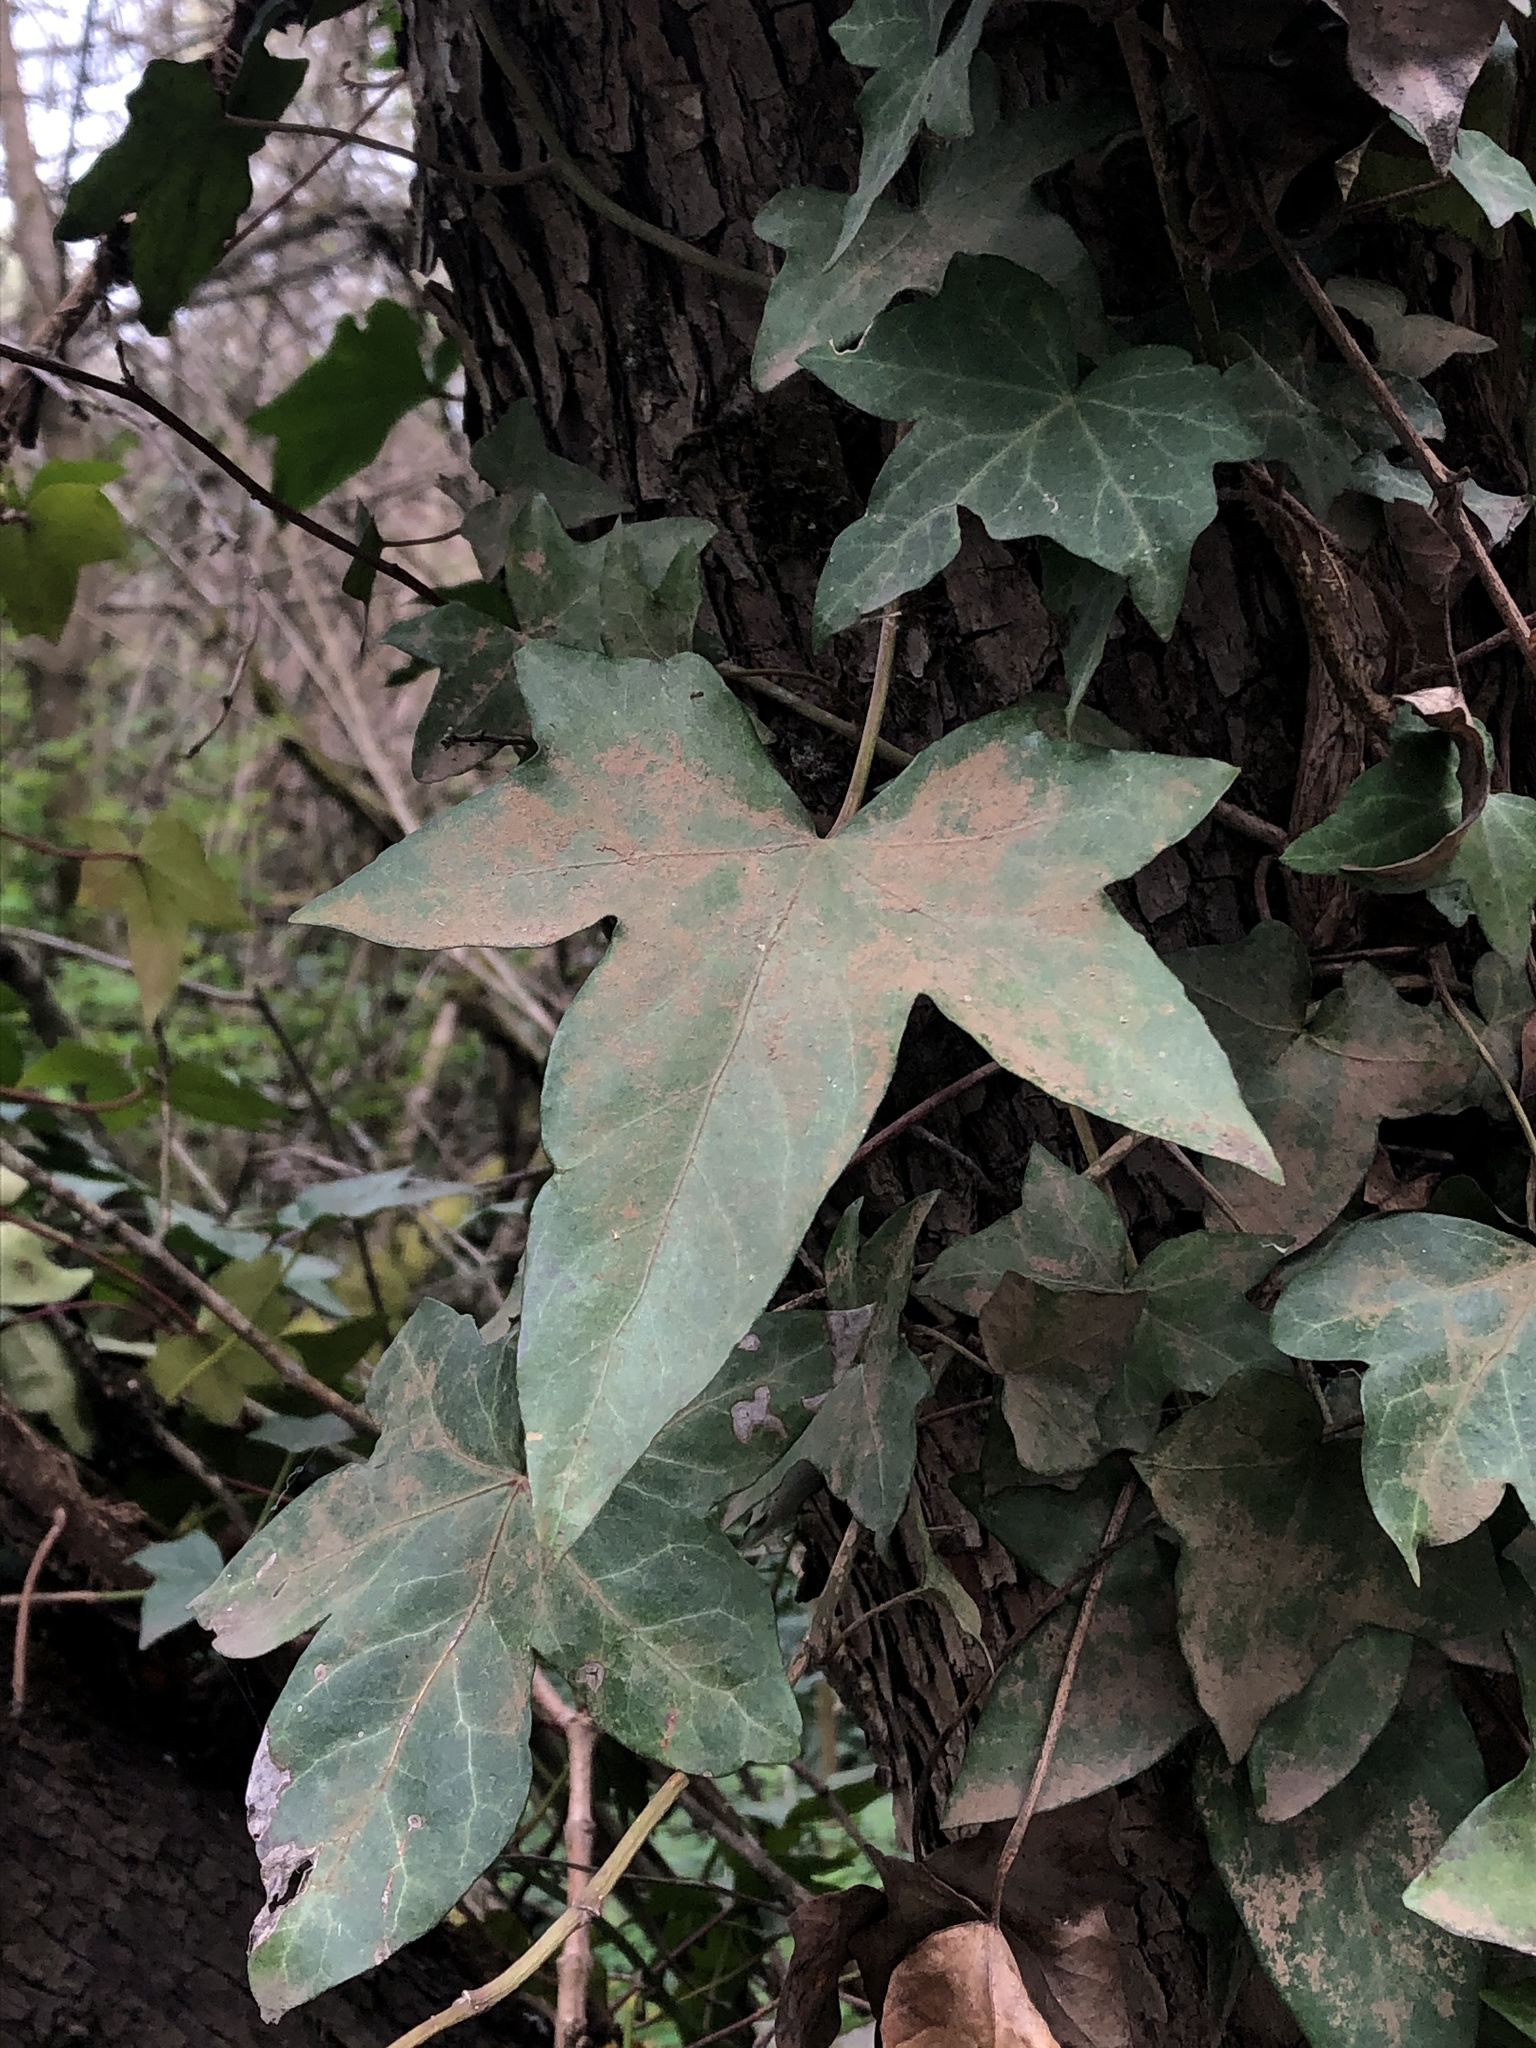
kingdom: Plantae
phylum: Tracheophyta
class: Magnoliopsida
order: Apiales
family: Araliaceae
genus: Hedera
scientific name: Hedera helix
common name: Ivy
